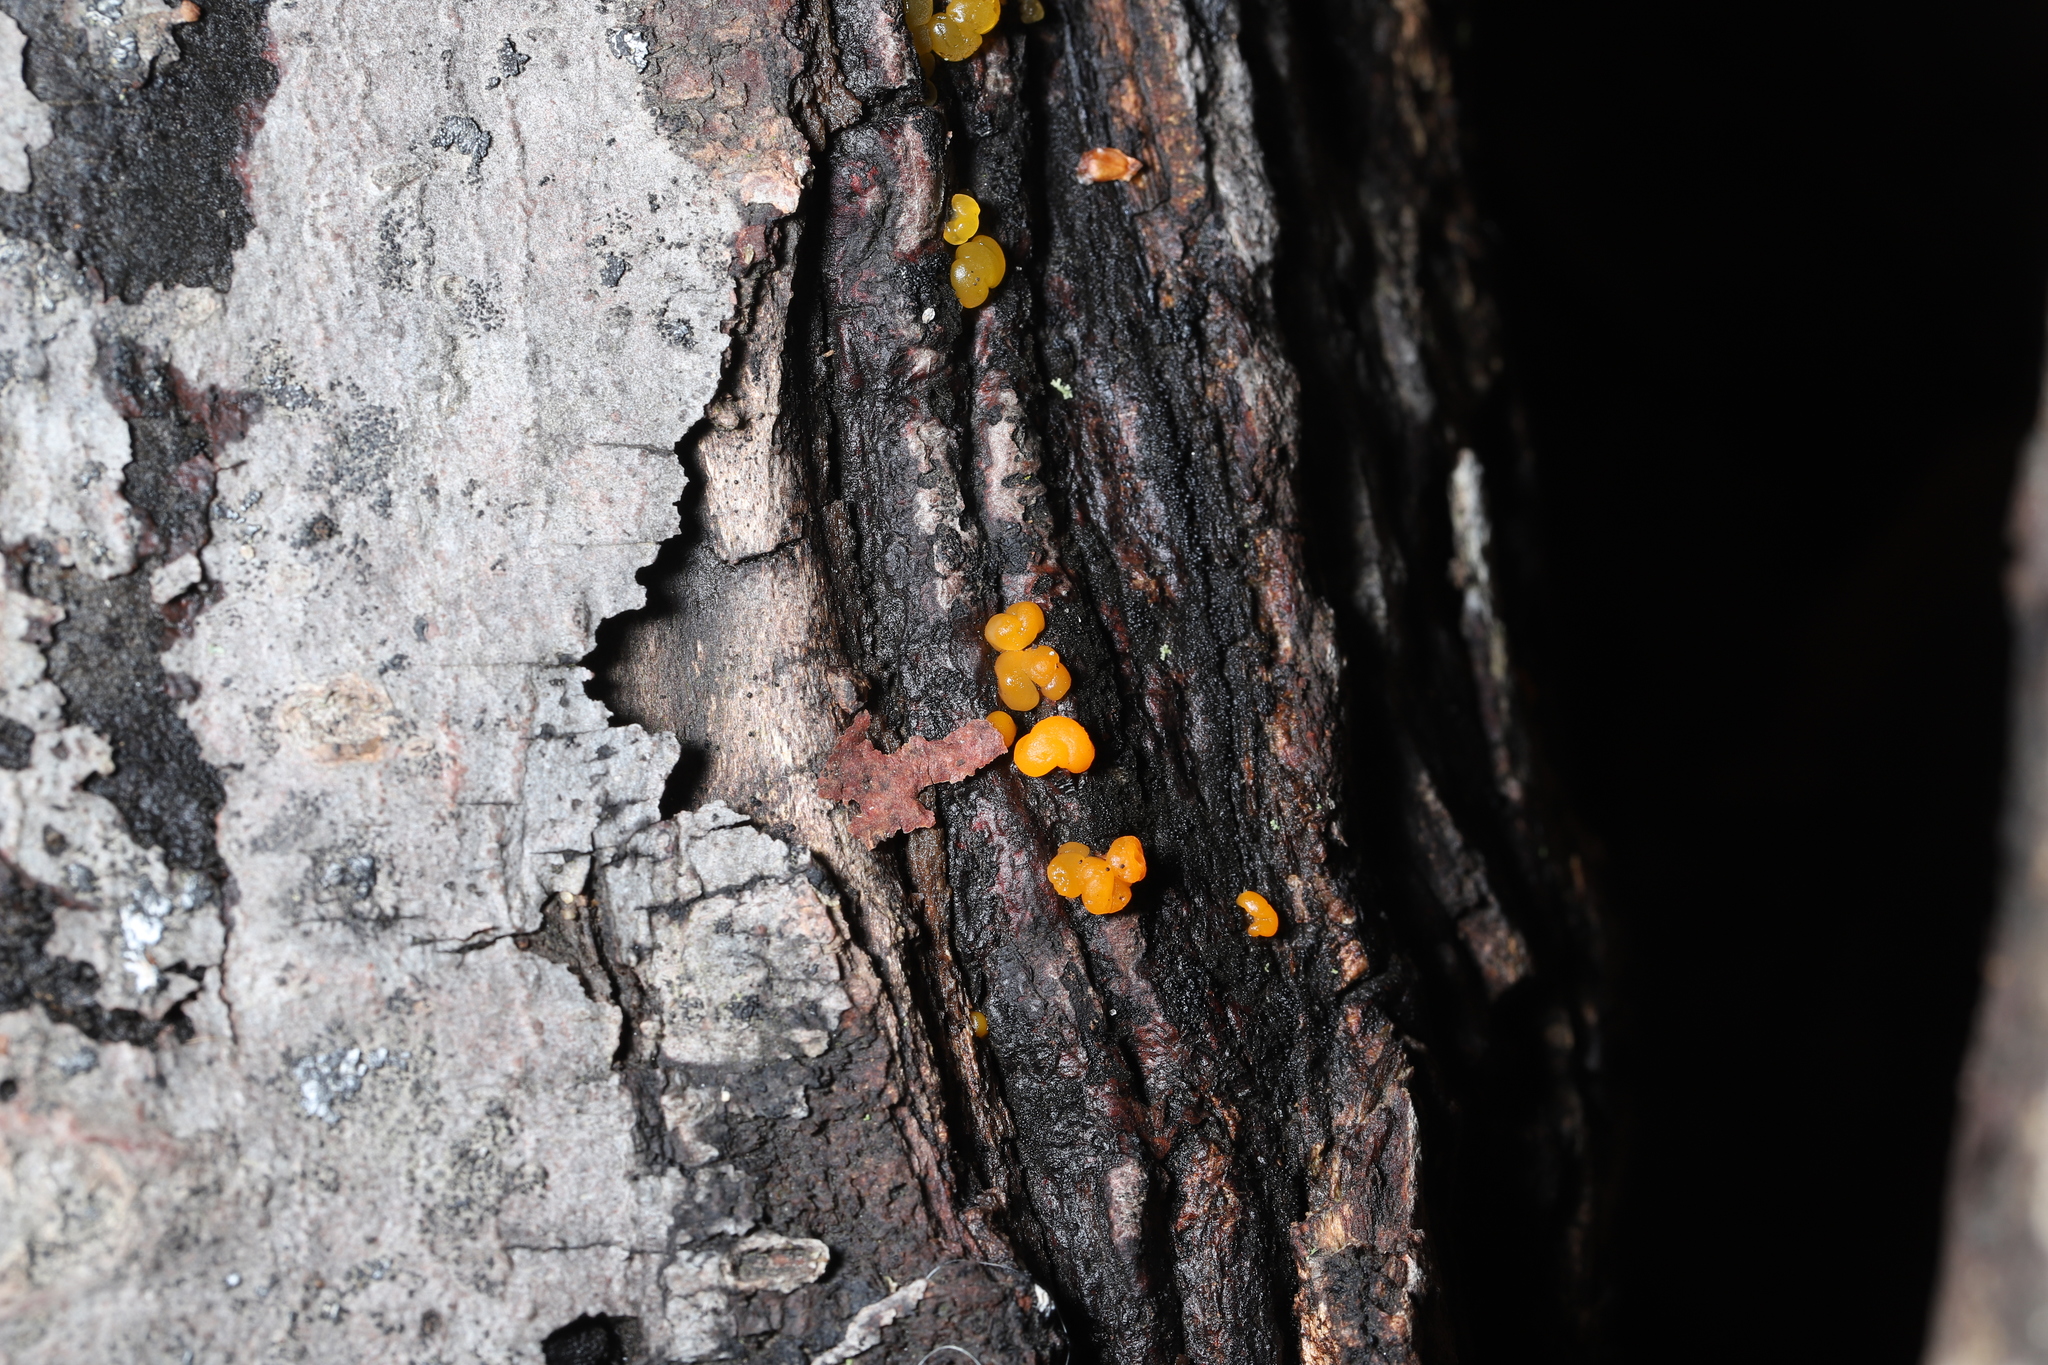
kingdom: Fungi
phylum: Basidiomycota
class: Dacrymycetes
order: Dacrymycetales
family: Dacrymycetaceae
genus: Dacrymyces
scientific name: Dacrymyces chrysospermus
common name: Orange jelly spot
